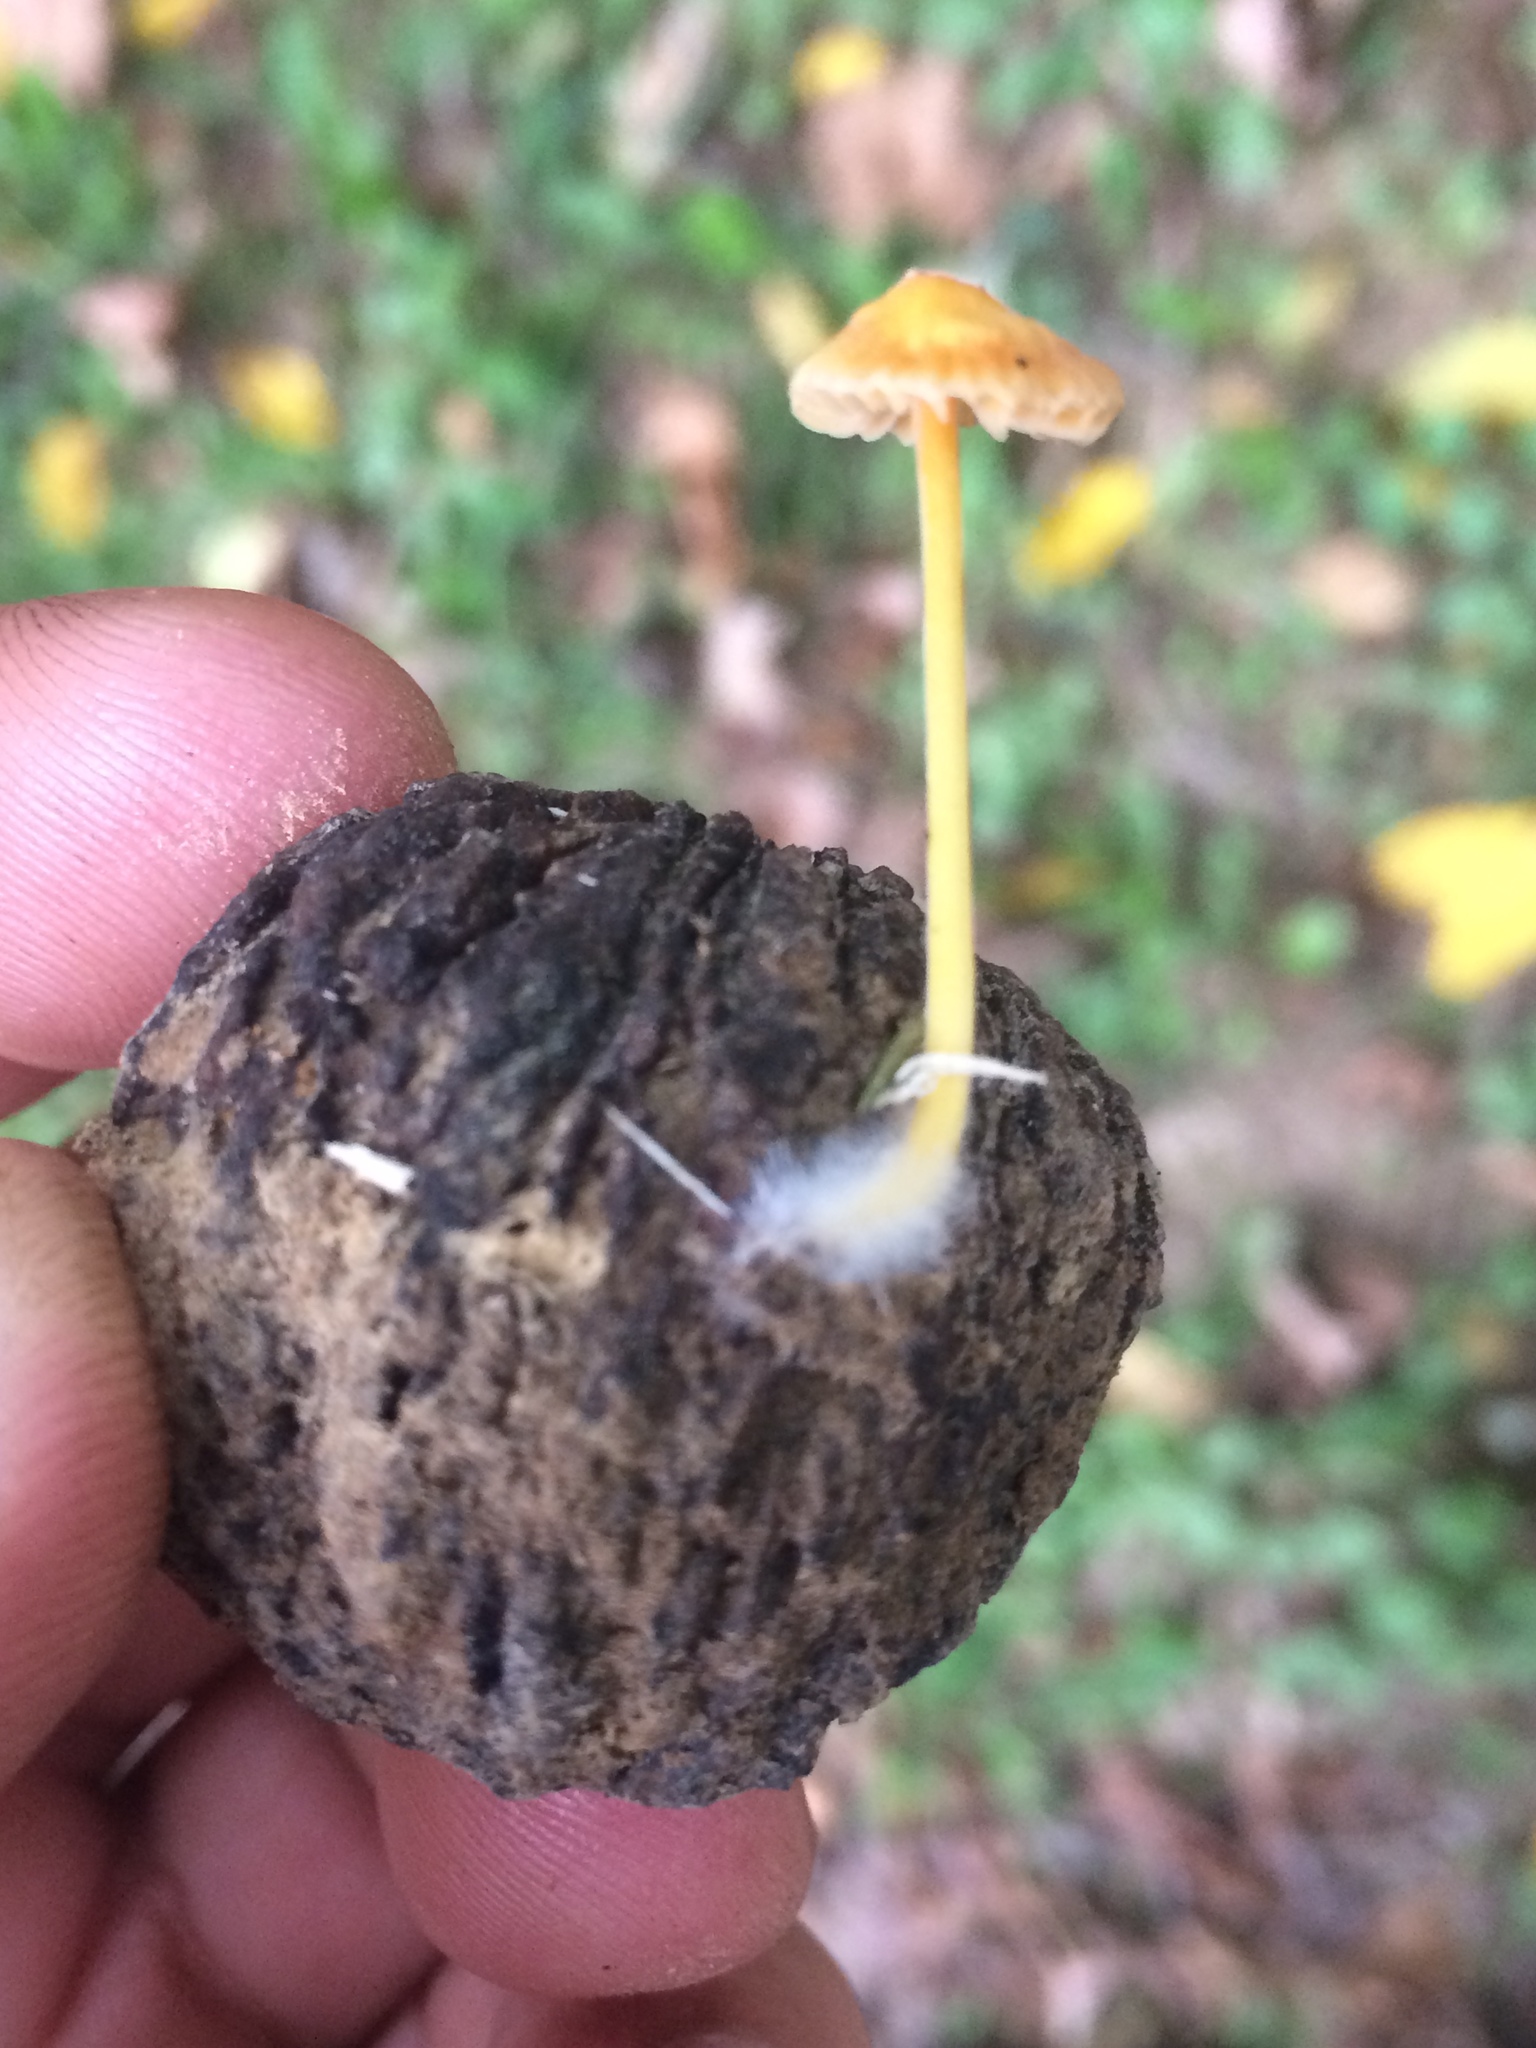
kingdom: Fungi
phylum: Basidiomycota
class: Agaricomycetes
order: Agaricales
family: Mycenaceae
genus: Mycena
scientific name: Mycena crocea
